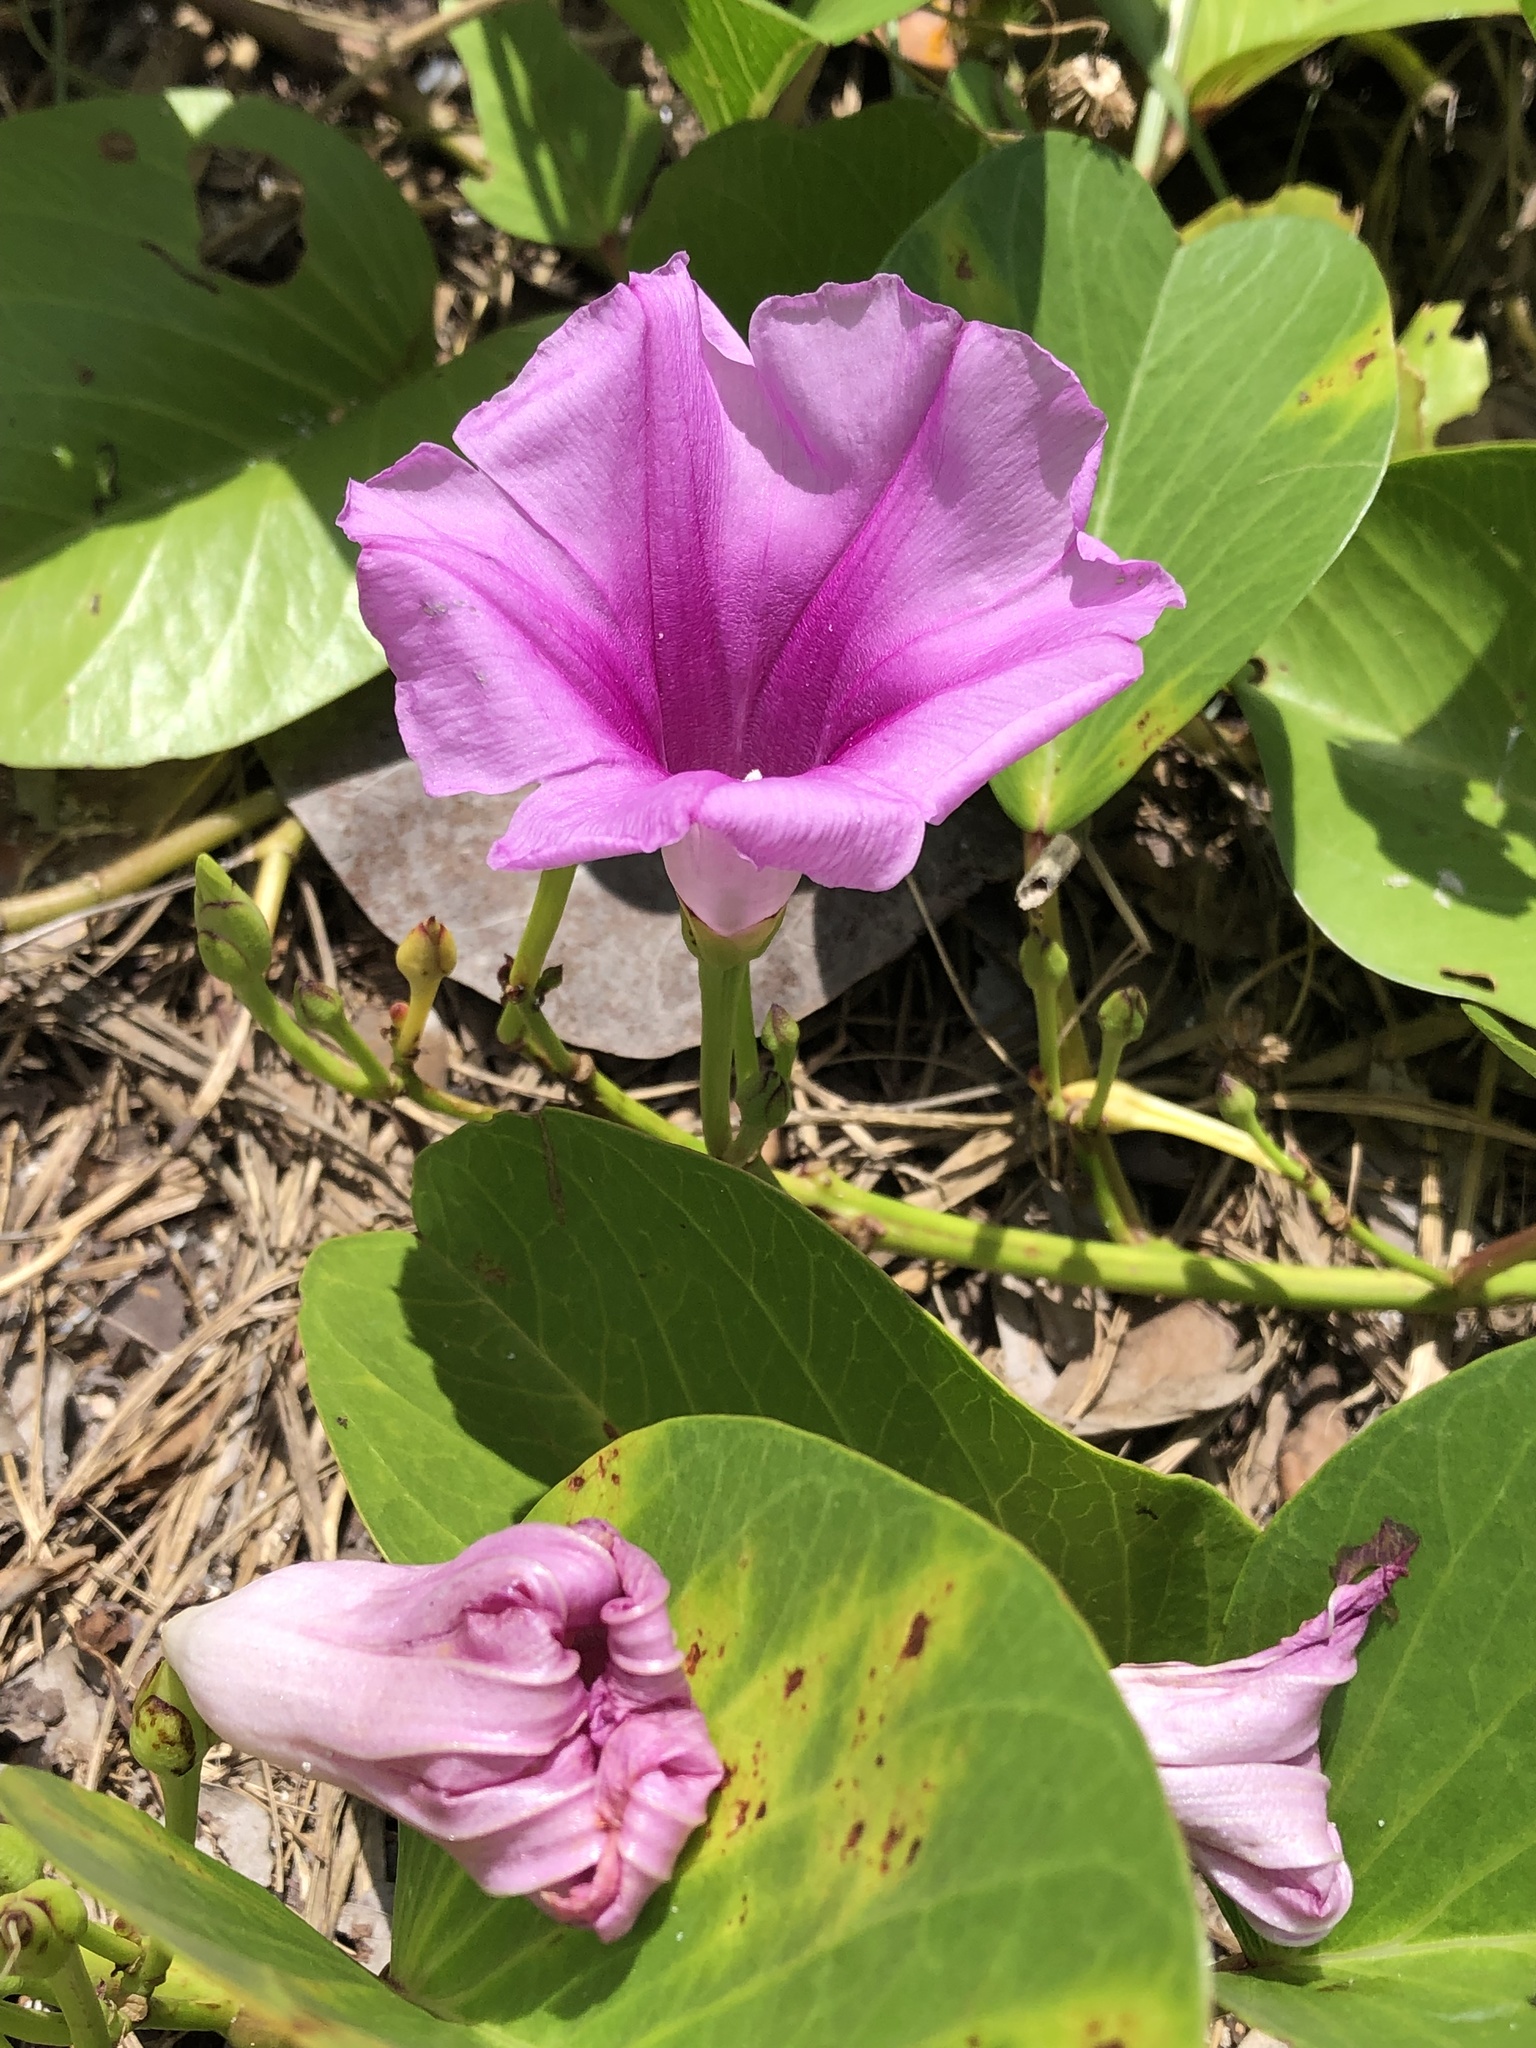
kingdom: Plantae
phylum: Tracheophyta
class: Magnoliopsida
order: Solanales
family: Convolvulaceae
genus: Ipomoea
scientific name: Ipomoea pes-caprae
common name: Beach morning glory
